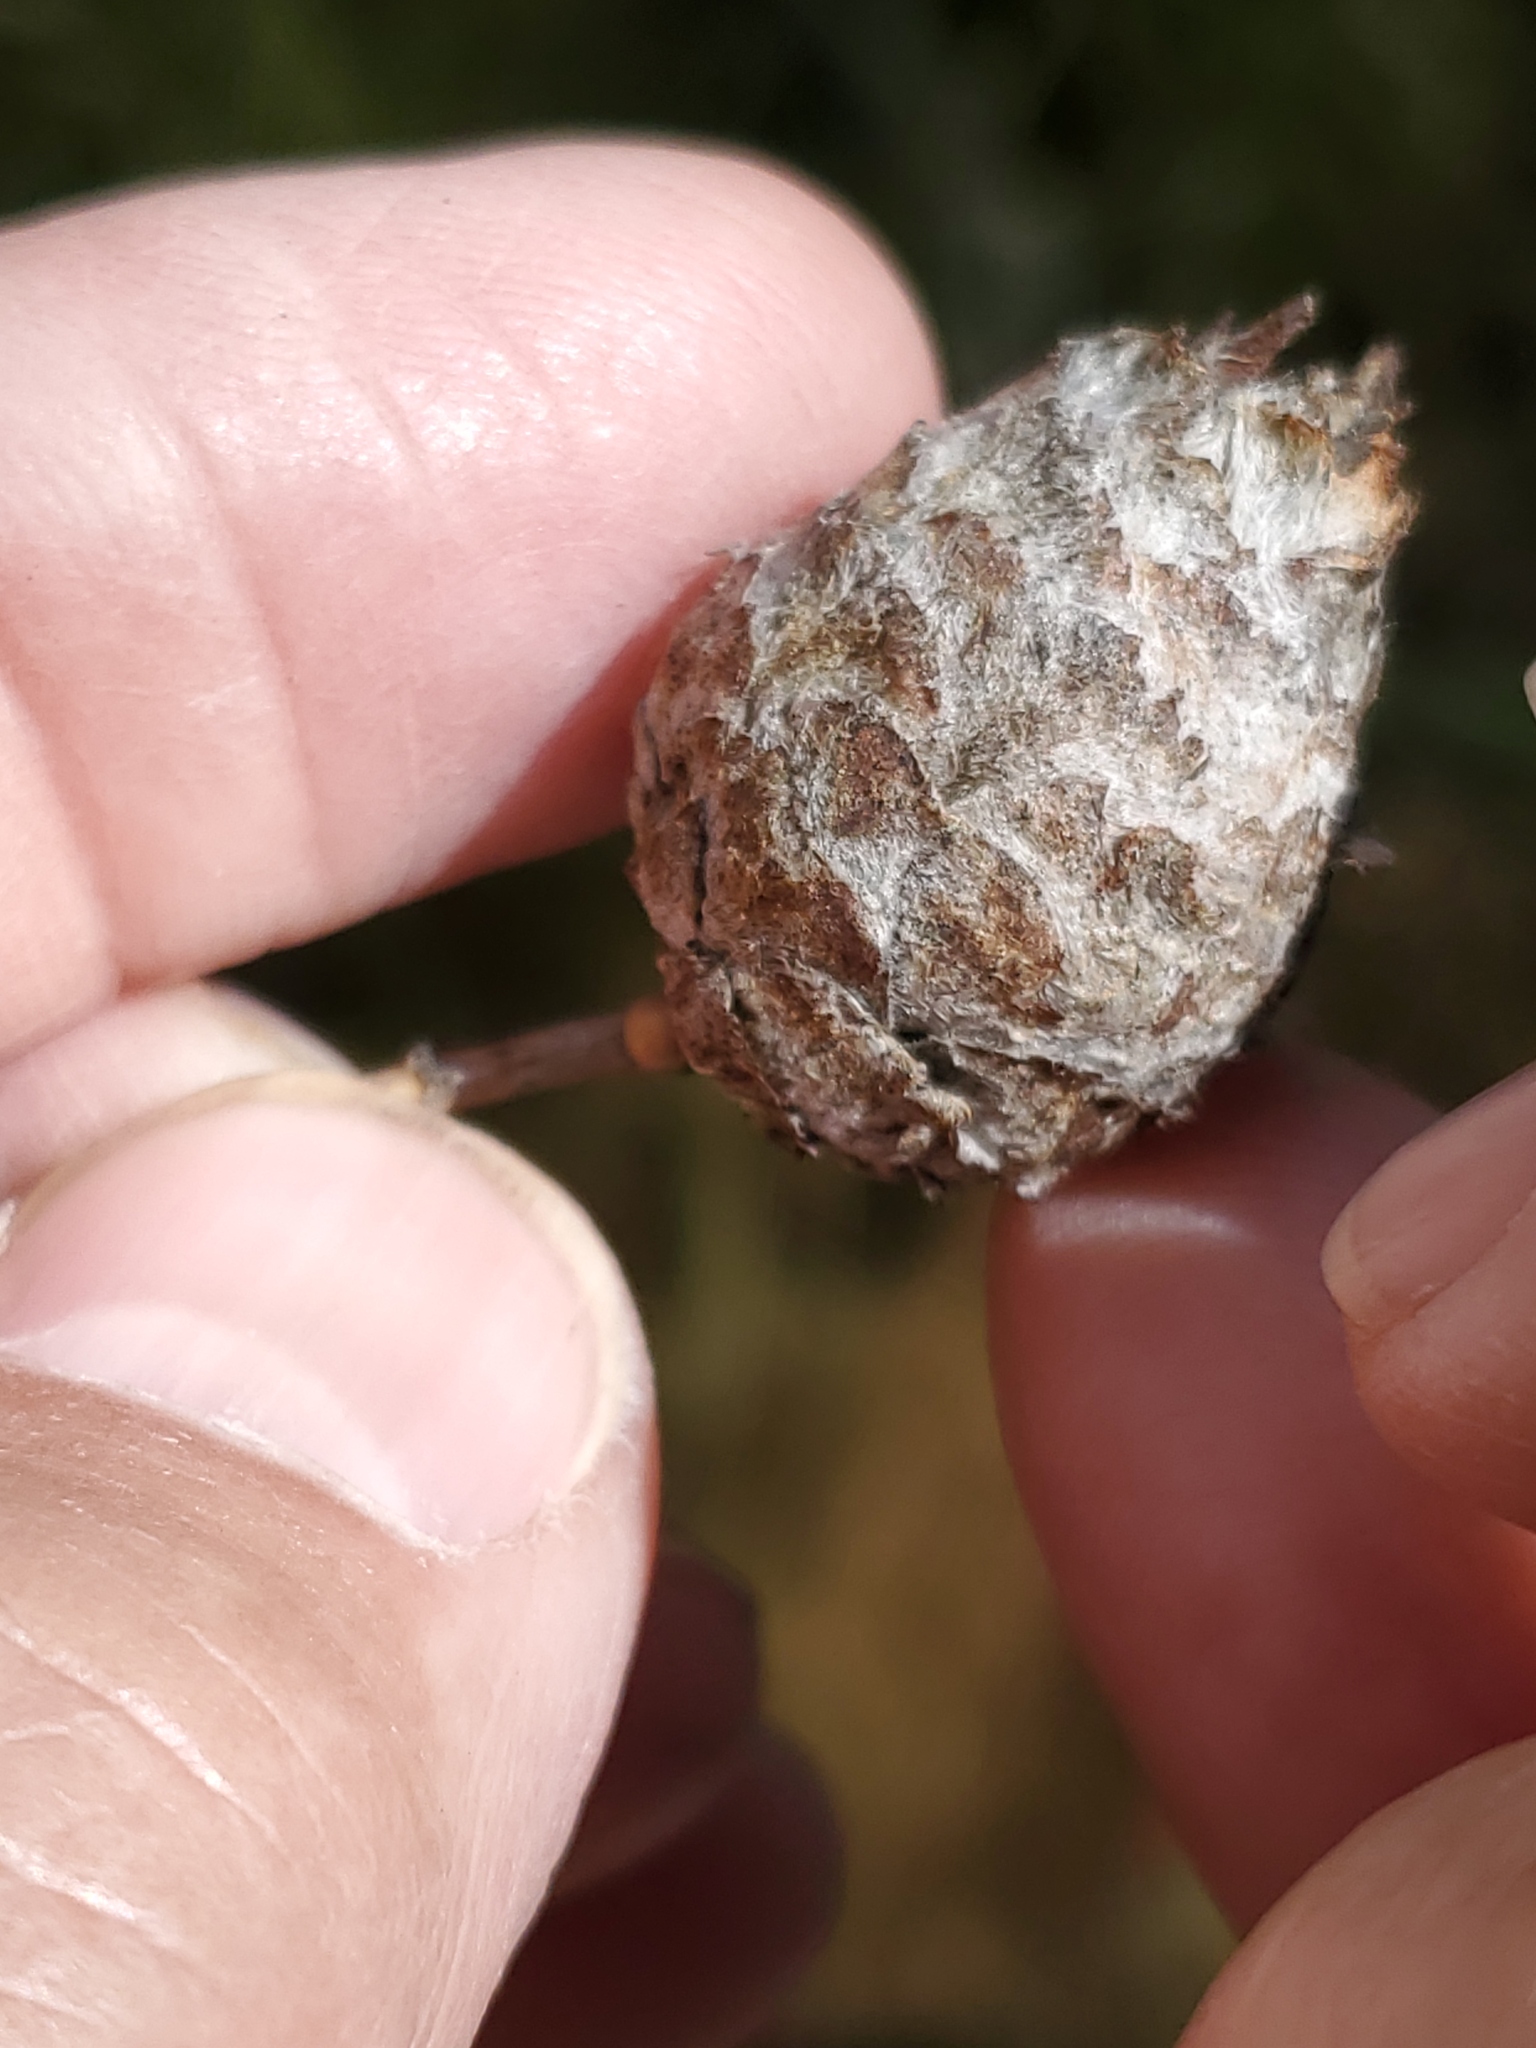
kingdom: Animalia
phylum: Arthropoda
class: Insecta
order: Diptera
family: Cecidomyiidae
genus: Rabdophaga
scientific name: Rabdophaga strobiloides
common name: Willow pinecone gall midge
